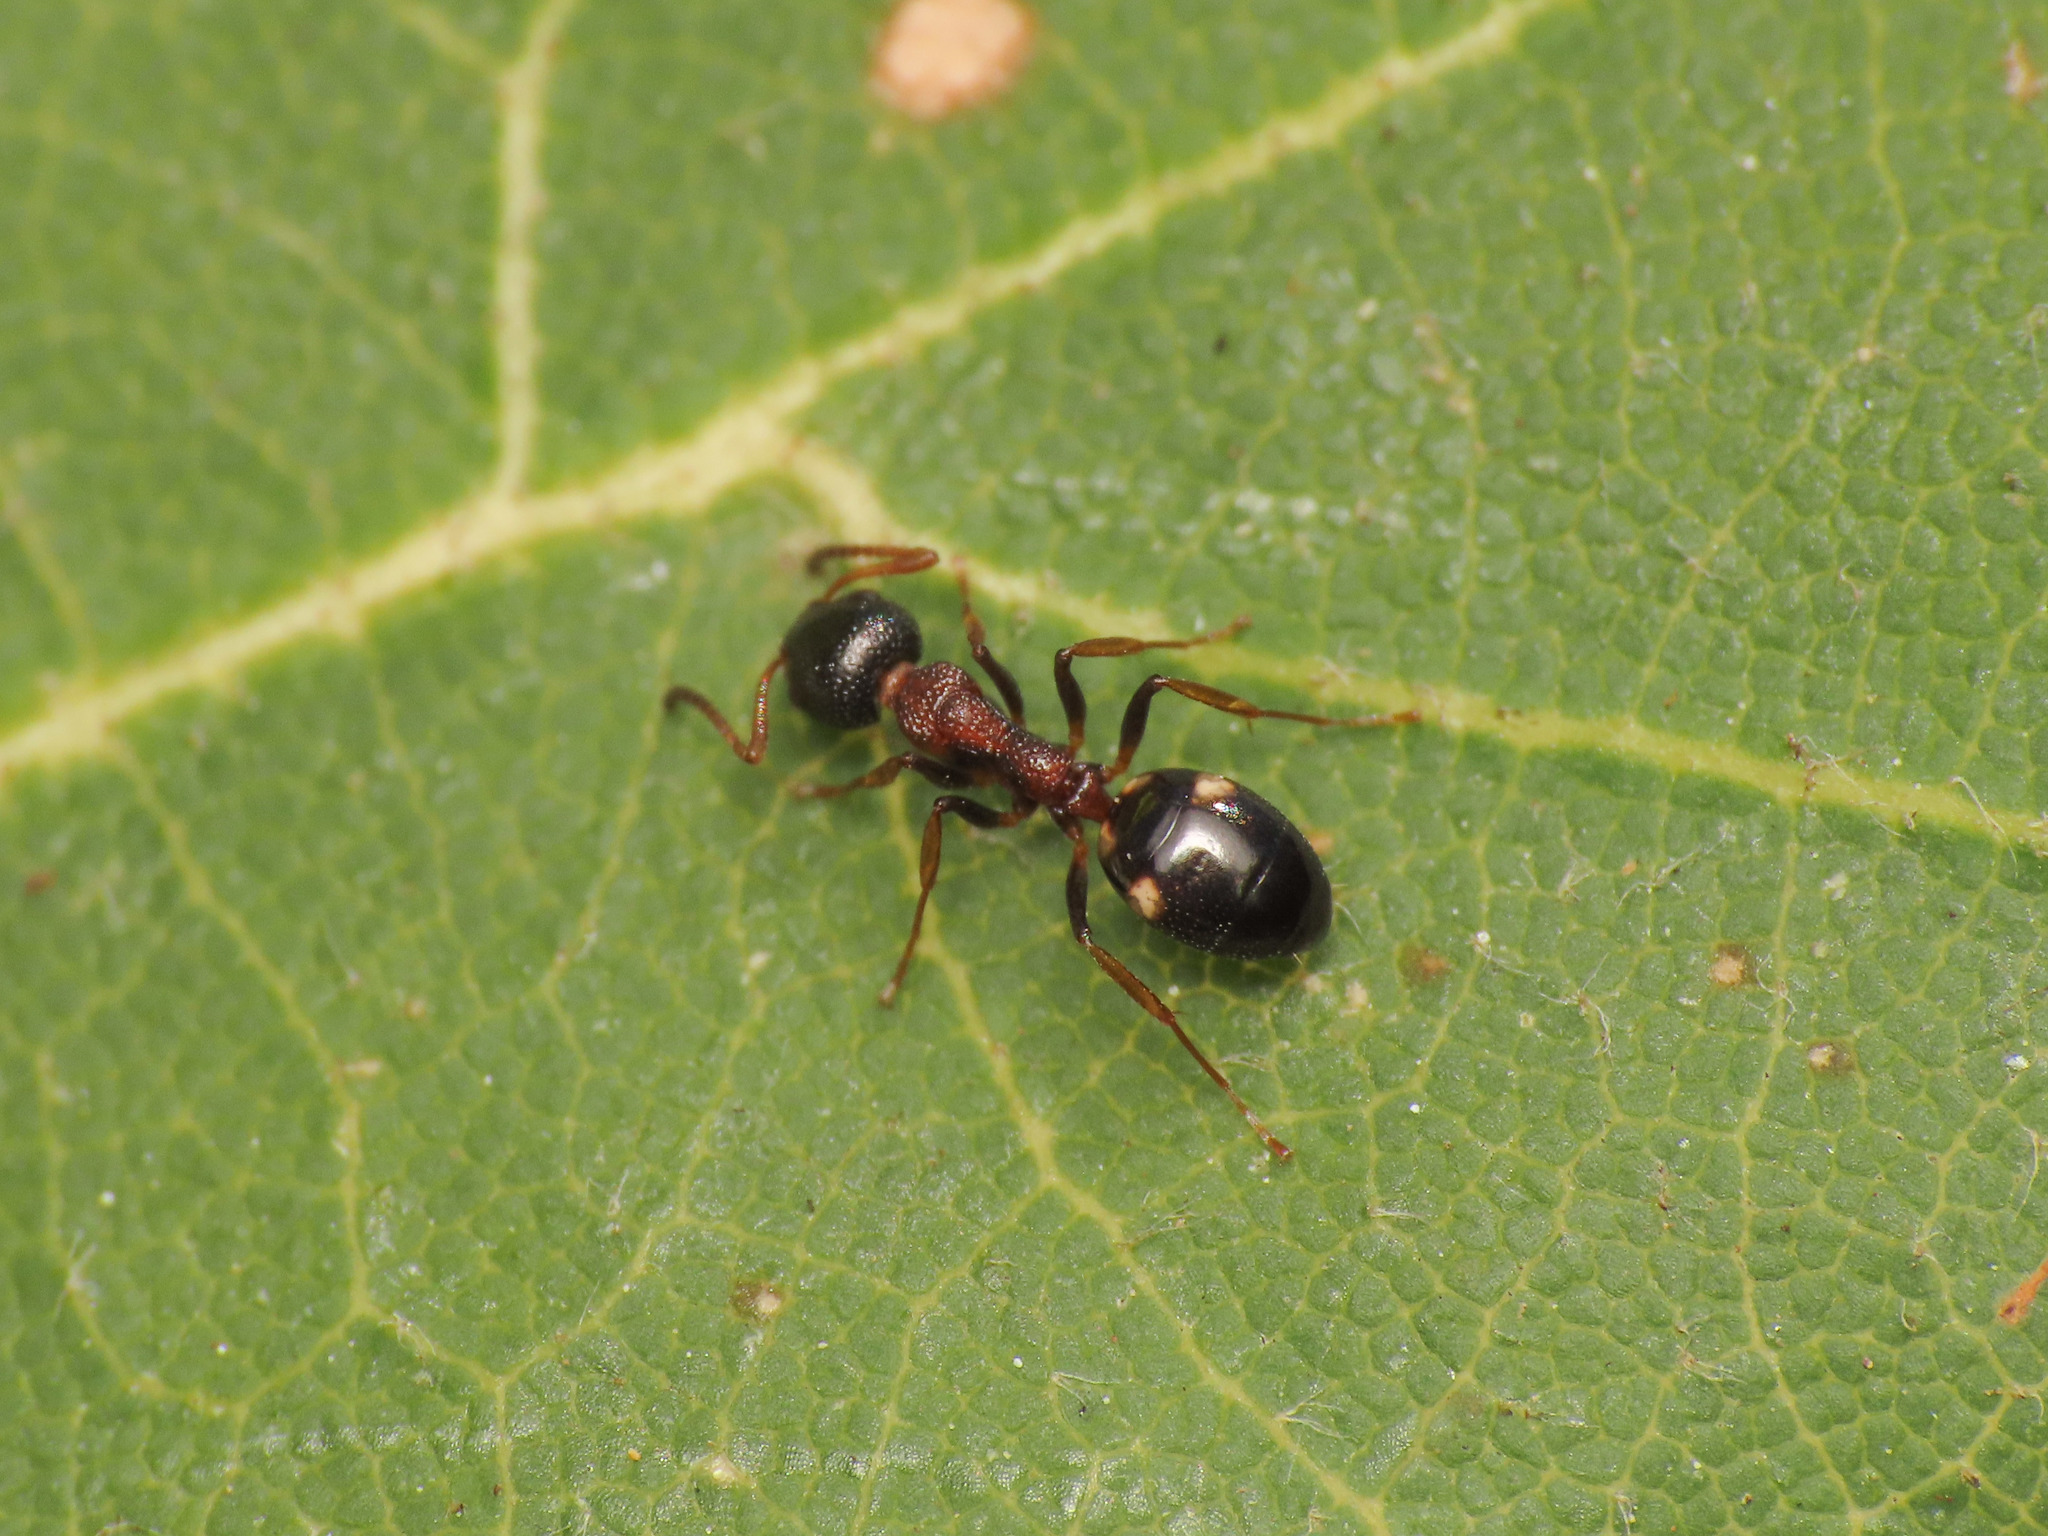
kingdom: Animalia
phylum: Arthropoda
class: Insecta
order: Hymenoptera
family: Formicidae
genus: Dolichoderus
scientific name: Dolichoderus quadripunctatus
